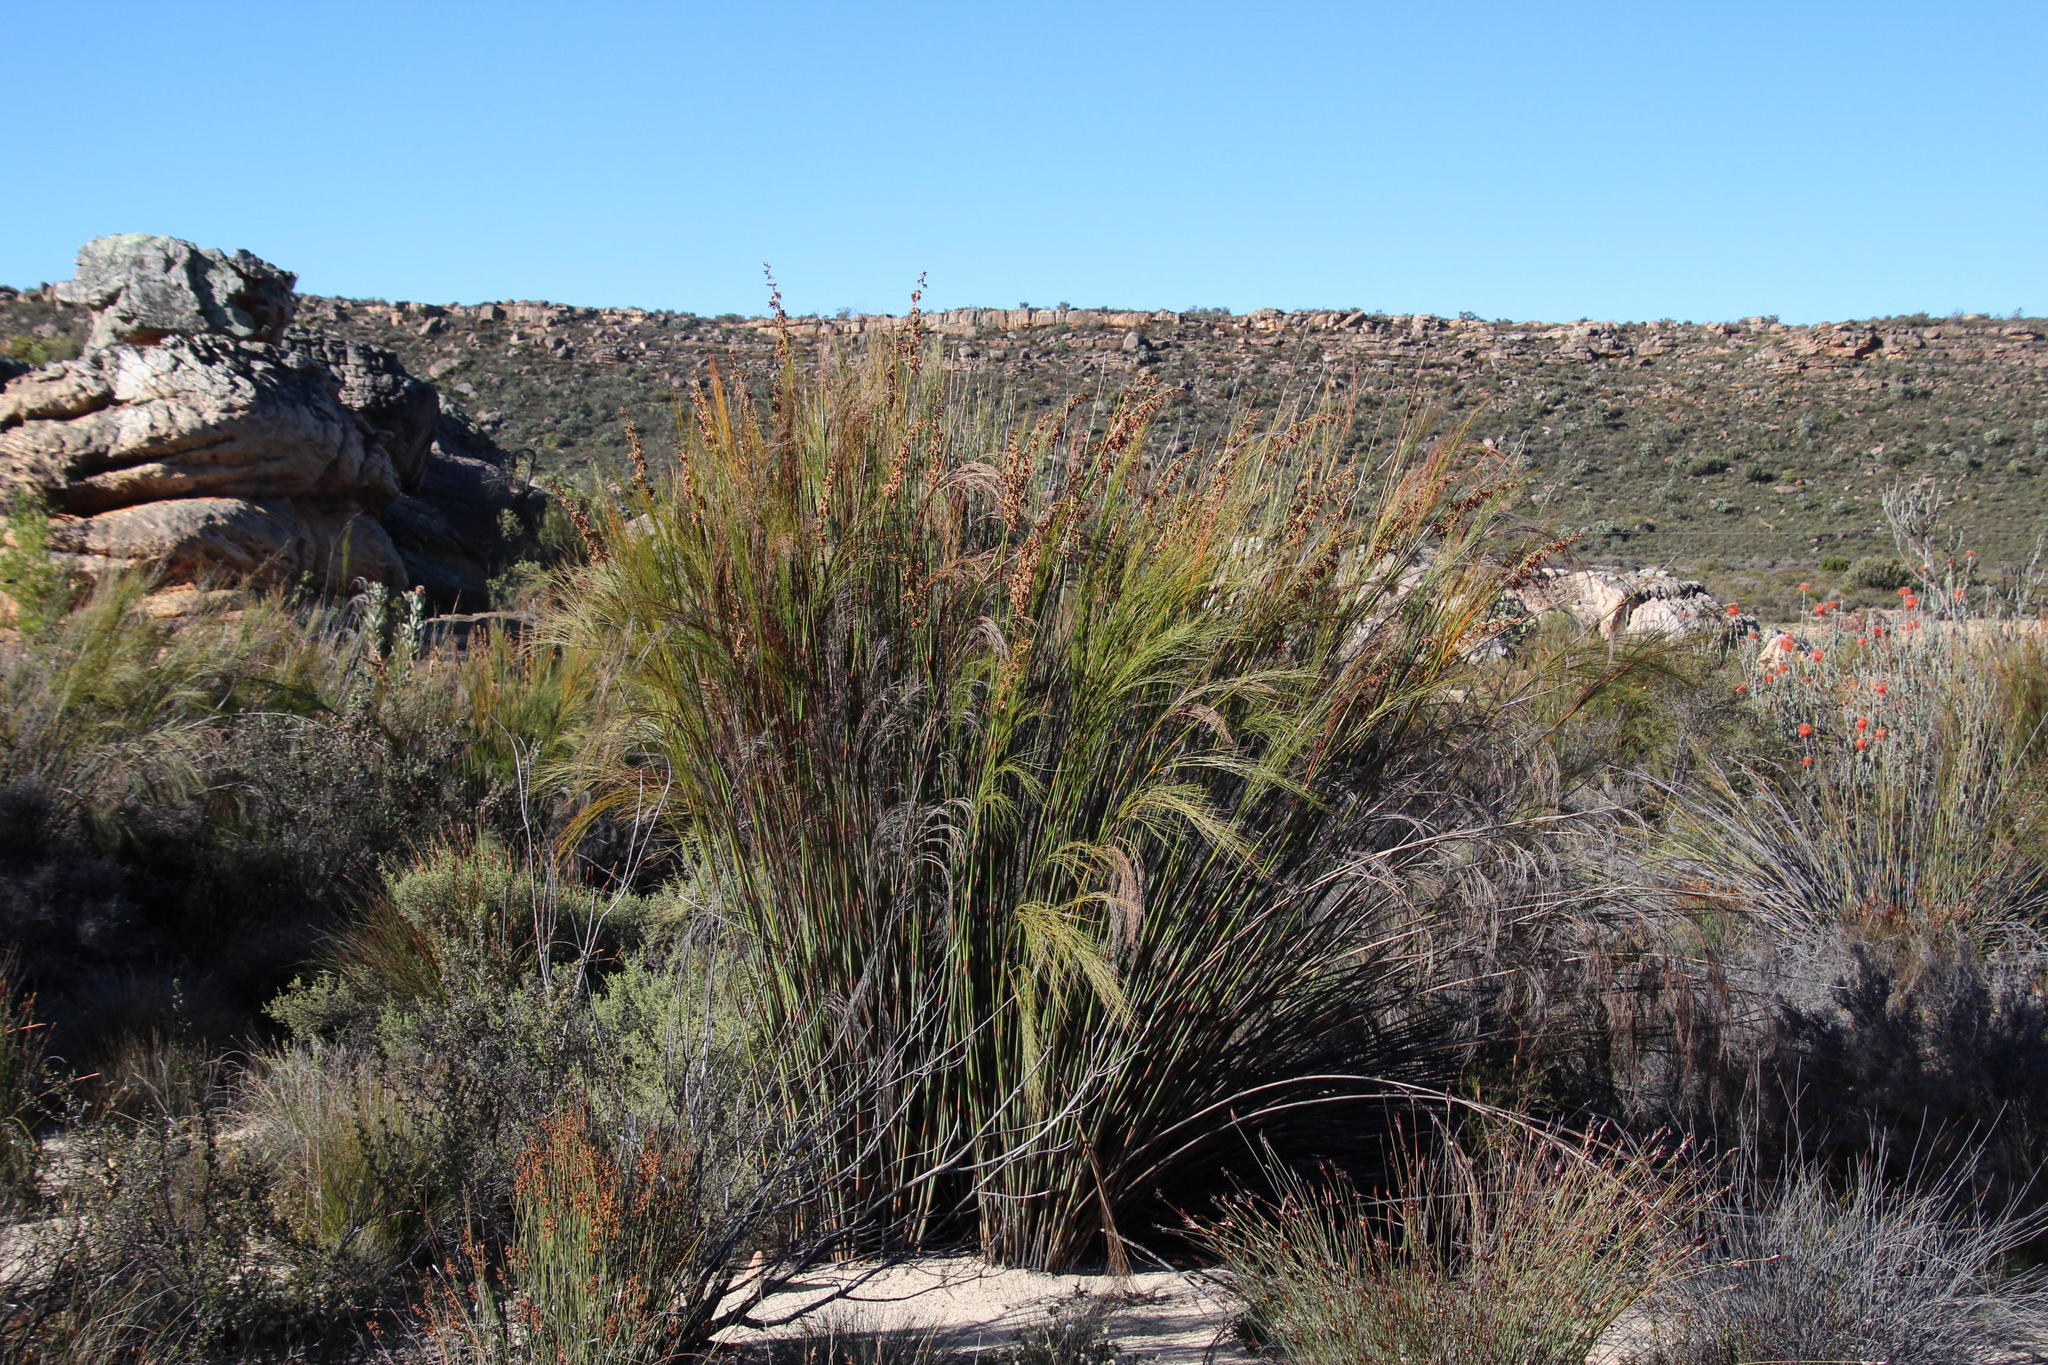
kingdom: Plantae
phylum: Tracheophyta
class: Liliopsida
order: Poales
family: Restionaceae
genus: Cannomois
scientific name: Cannomois robusta
